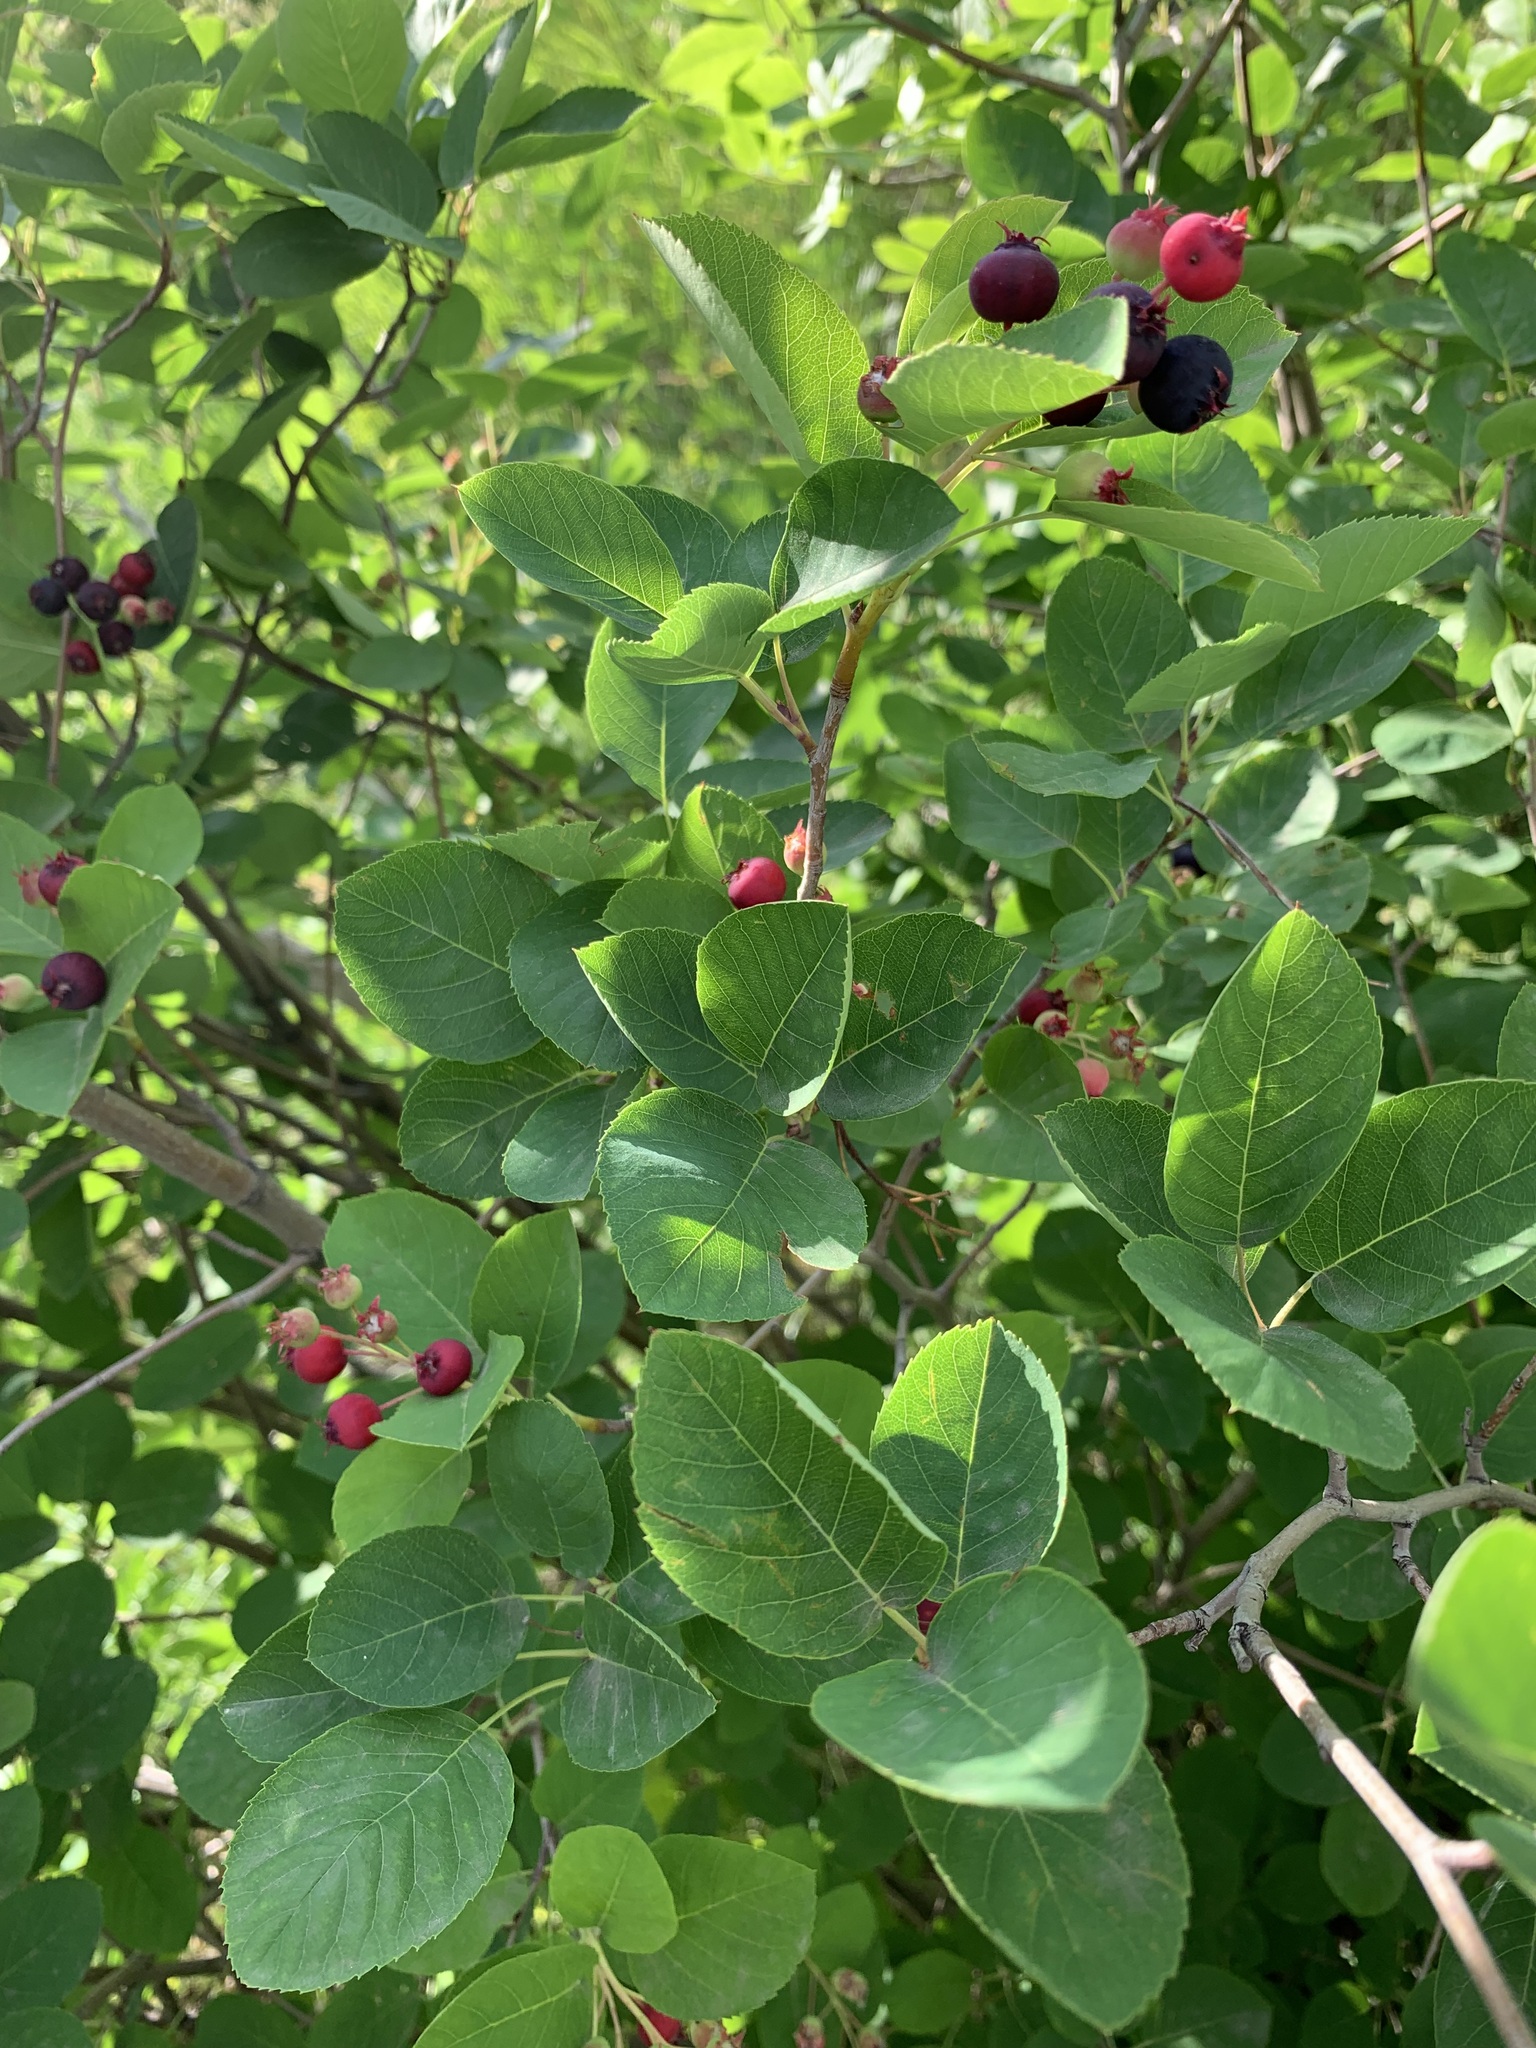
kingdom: Plantae
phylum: Tracheophyta
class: Magnoliopsida
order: Rosales
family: Rosaceae
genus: Amelanchier
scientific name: Amelanchier
